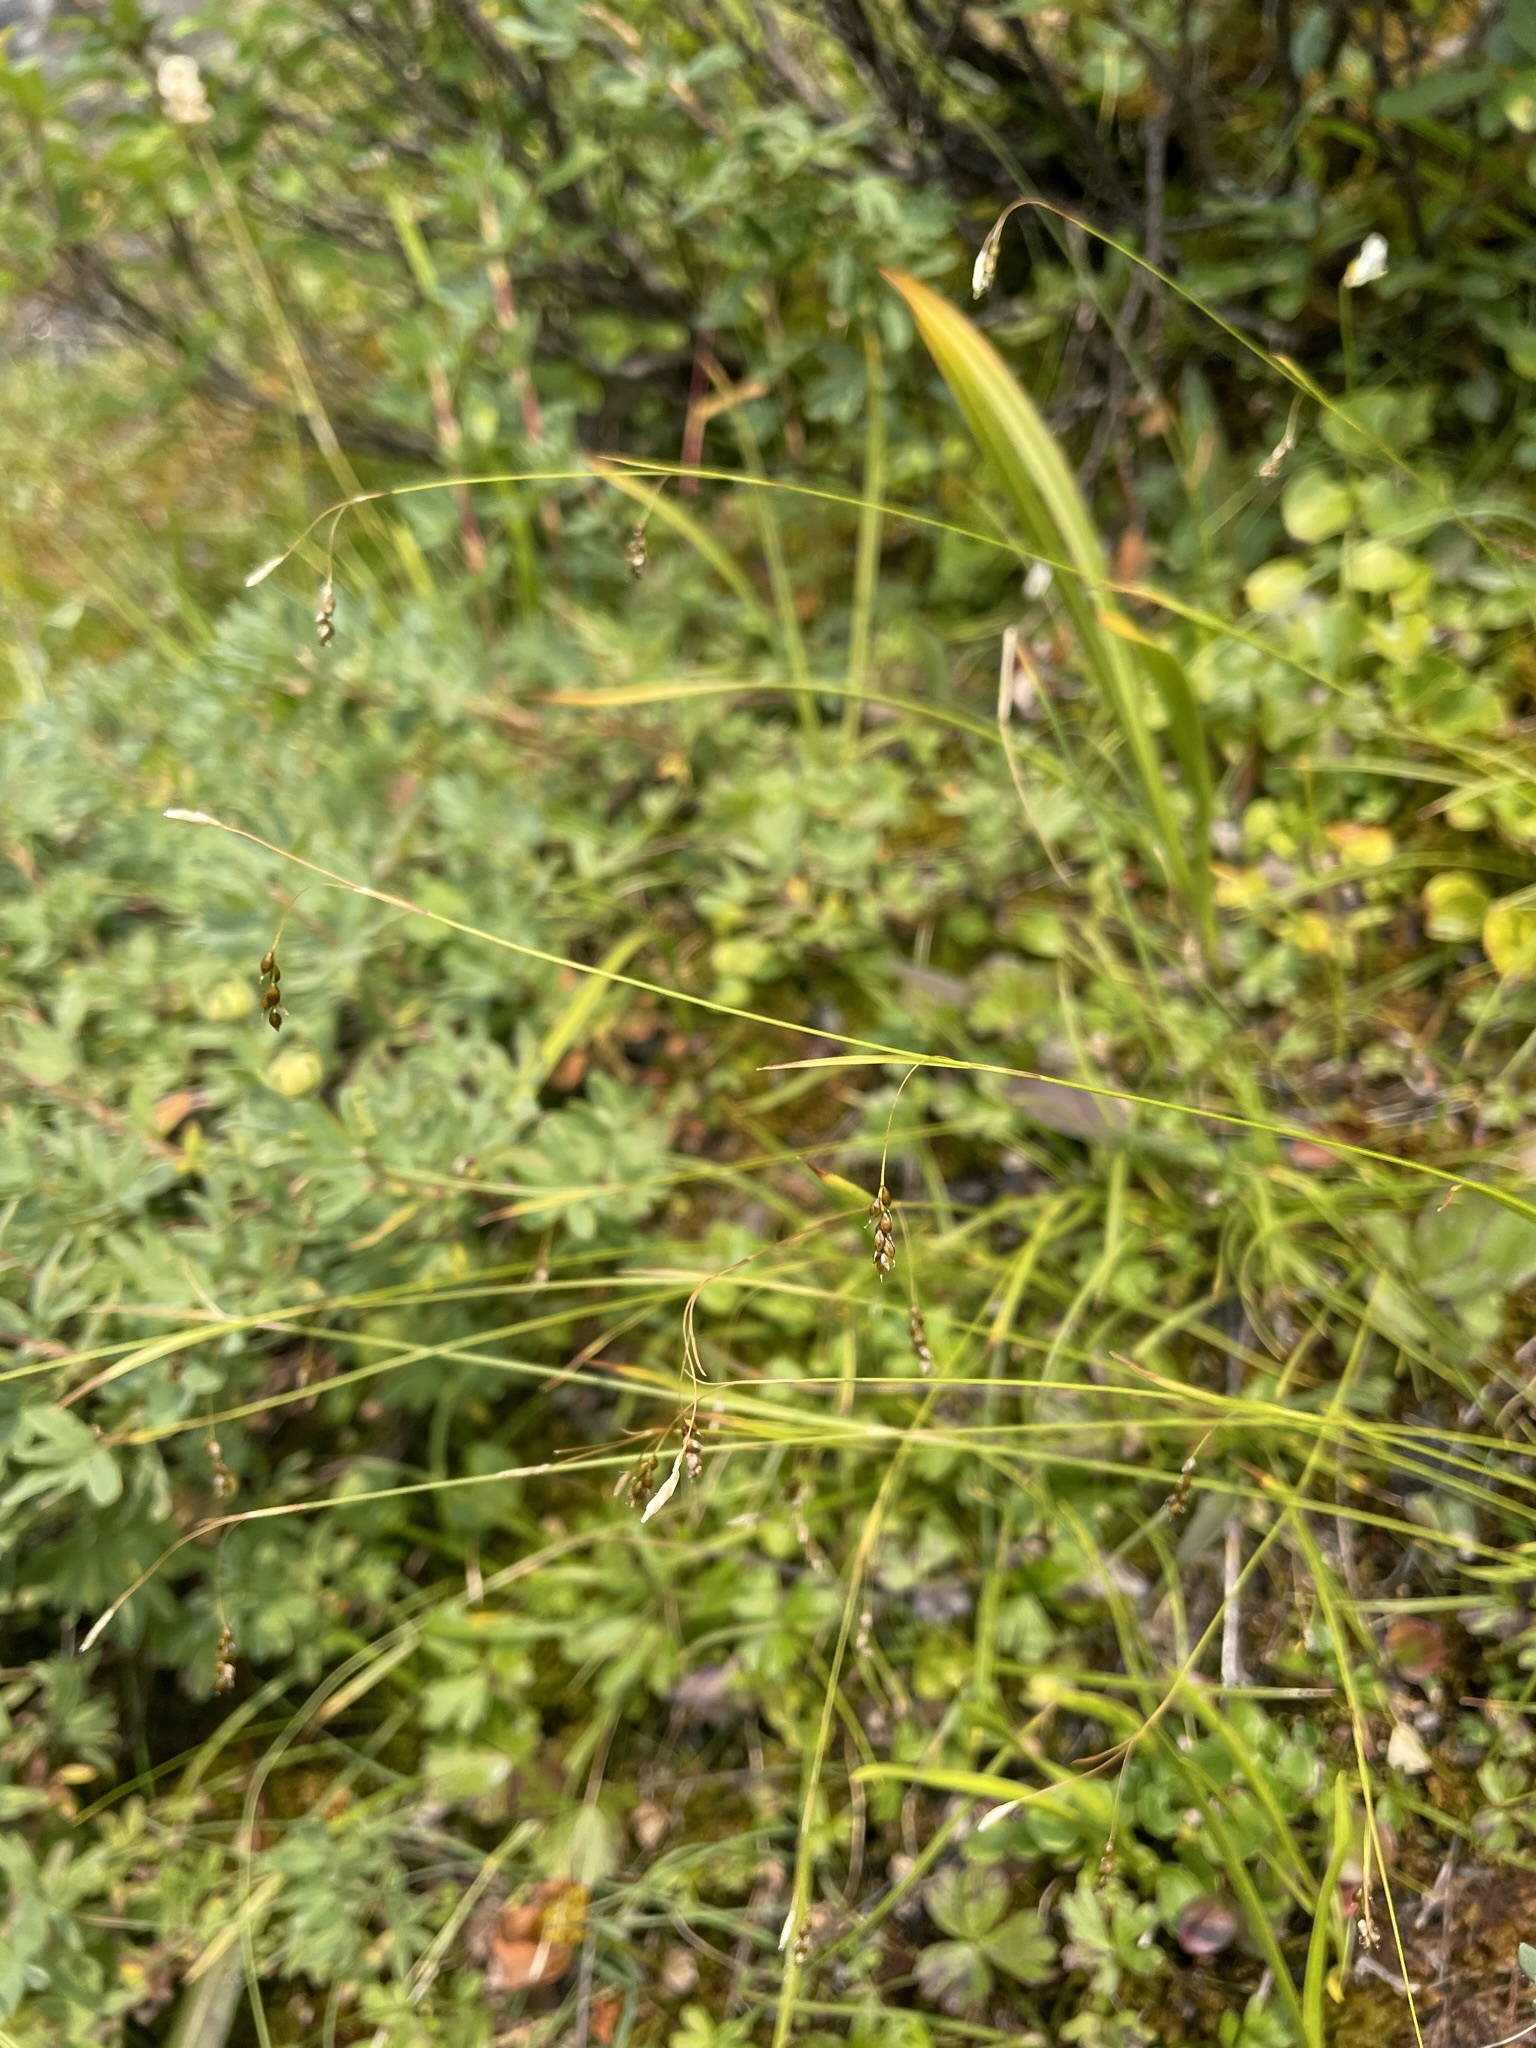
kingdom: Plantae
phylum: Tracheophyta
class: Liliopsida
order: Poales
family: Cyperaceae
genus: Carex
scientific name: Carex capillaris
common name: Hair sedge
